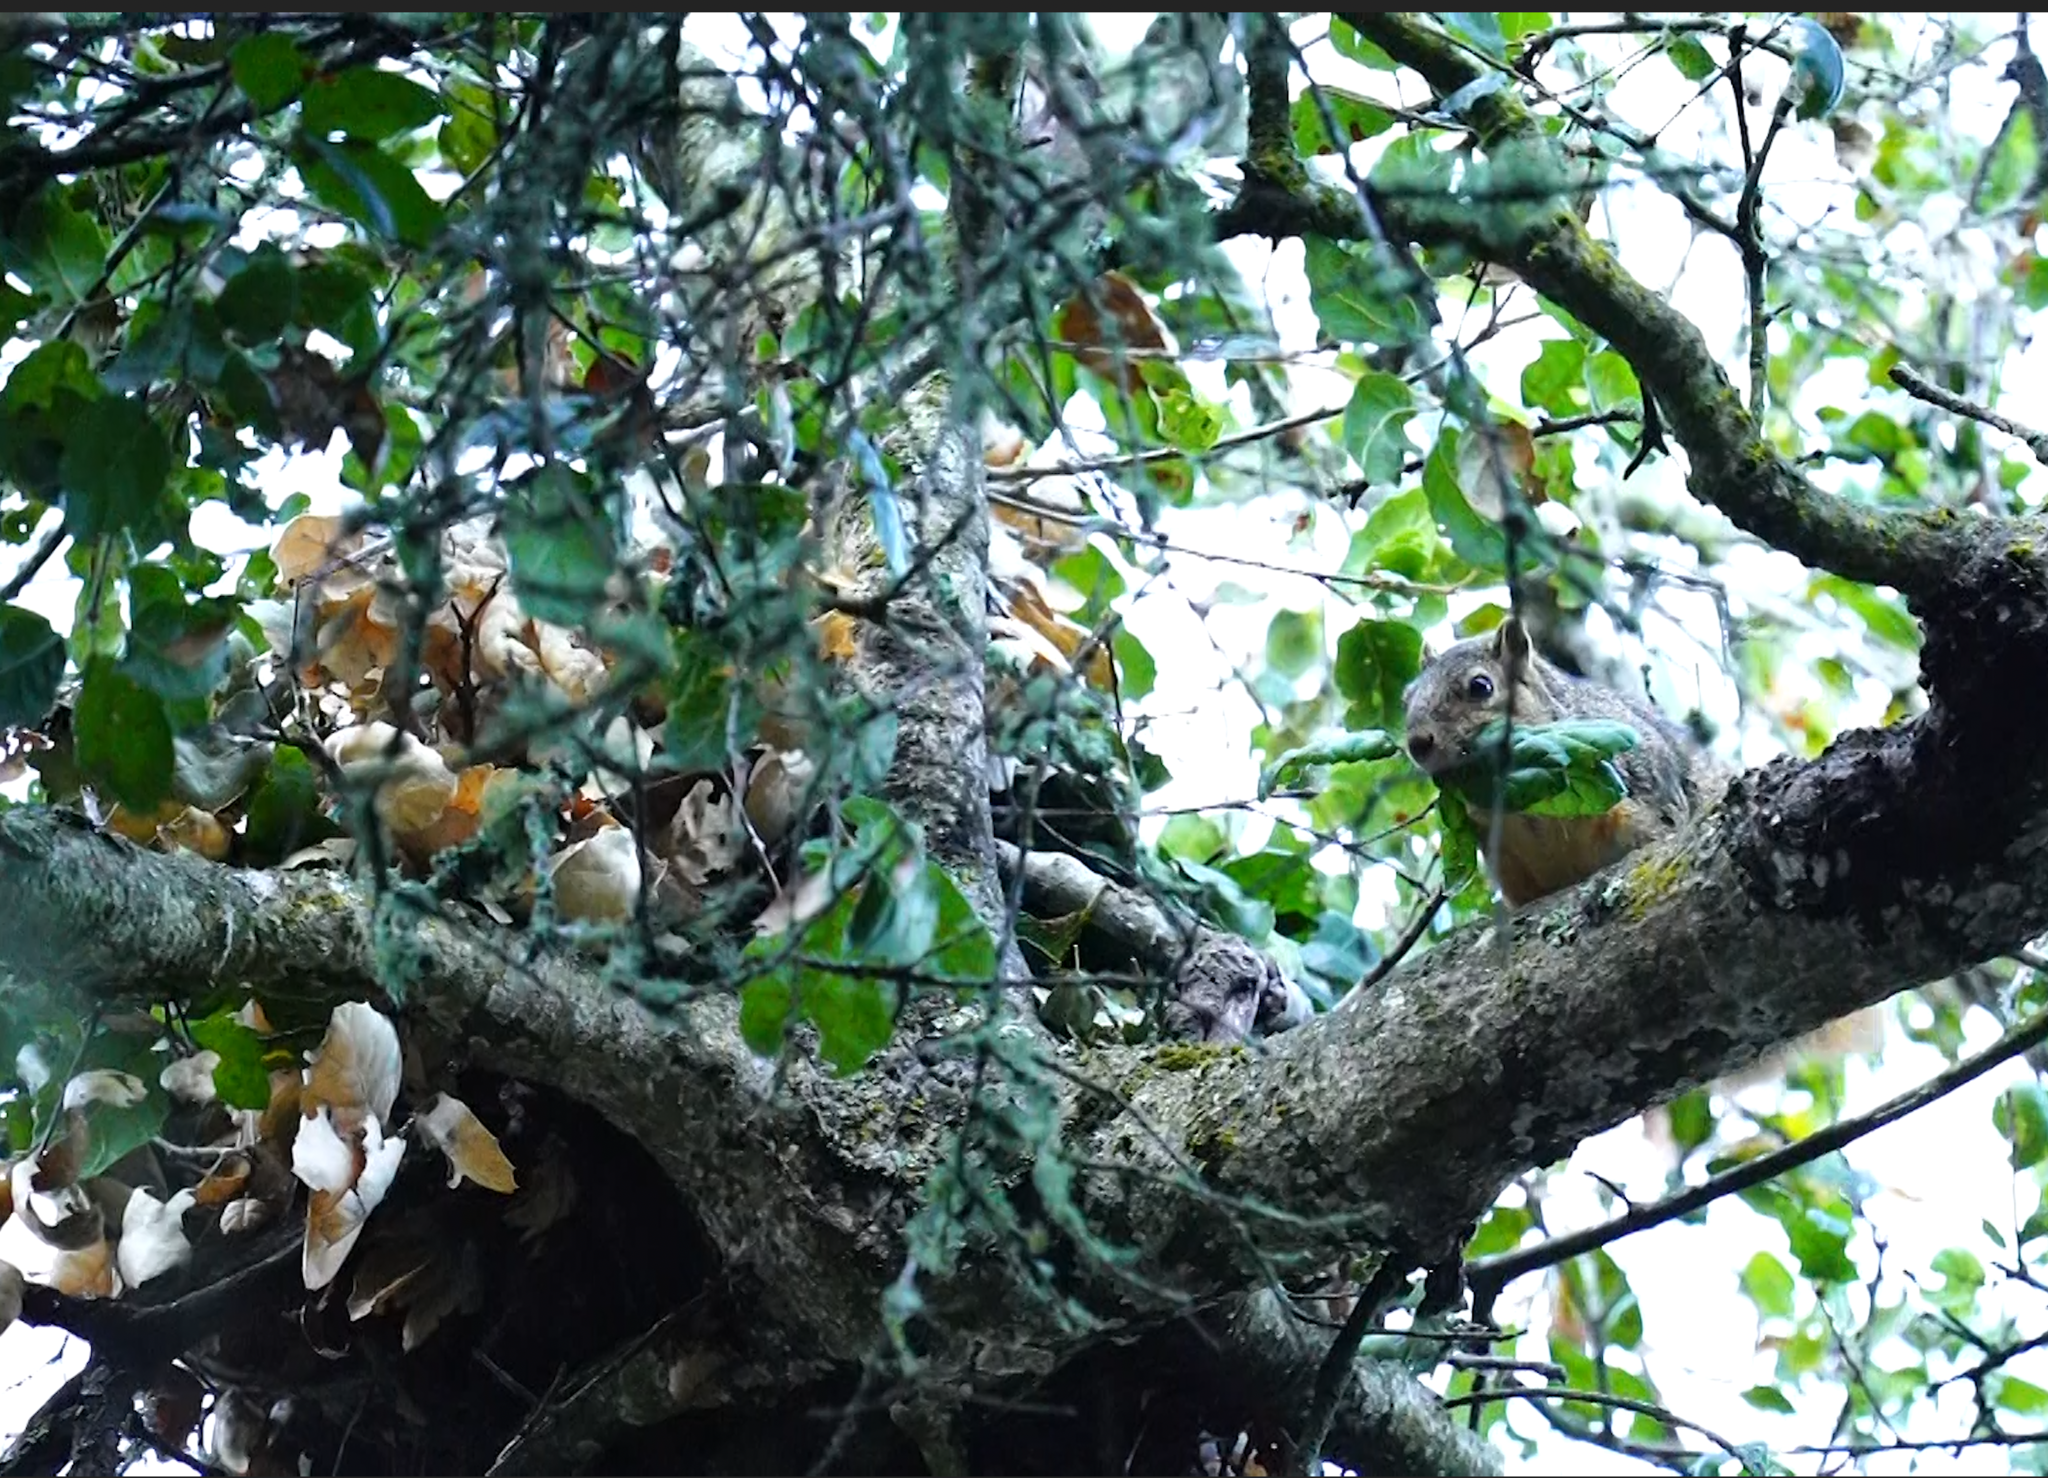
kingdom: Animalia
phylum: Chordata
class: Mammalia
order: Rodentia
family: Sciuridae
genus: Sciurus
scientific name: Sciurus niger
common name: Fox squirrel
